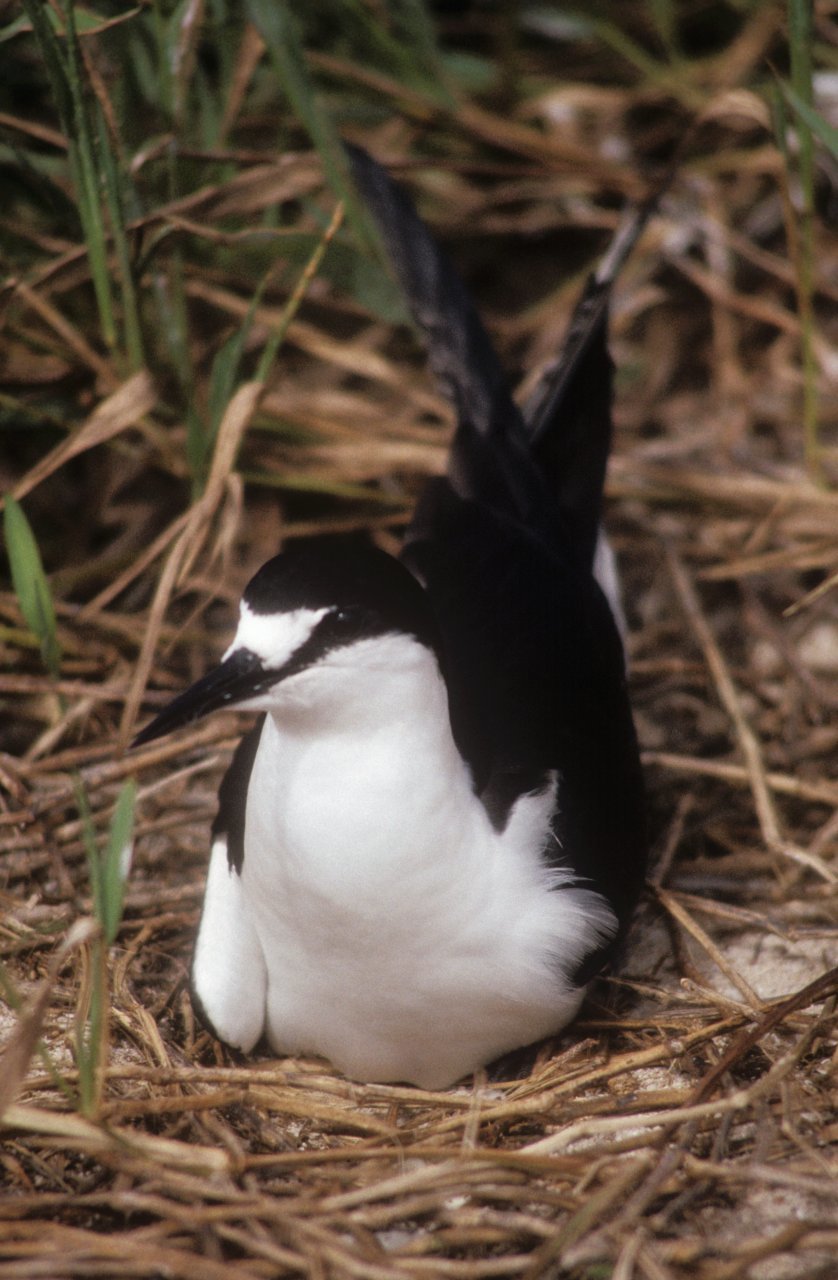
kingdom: Animalia
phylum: Chordata
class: Aves
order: Charadriiformes
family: Laridae
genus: Onychoprion
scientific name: Onychoprion fuscatus
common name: Sooty tern
